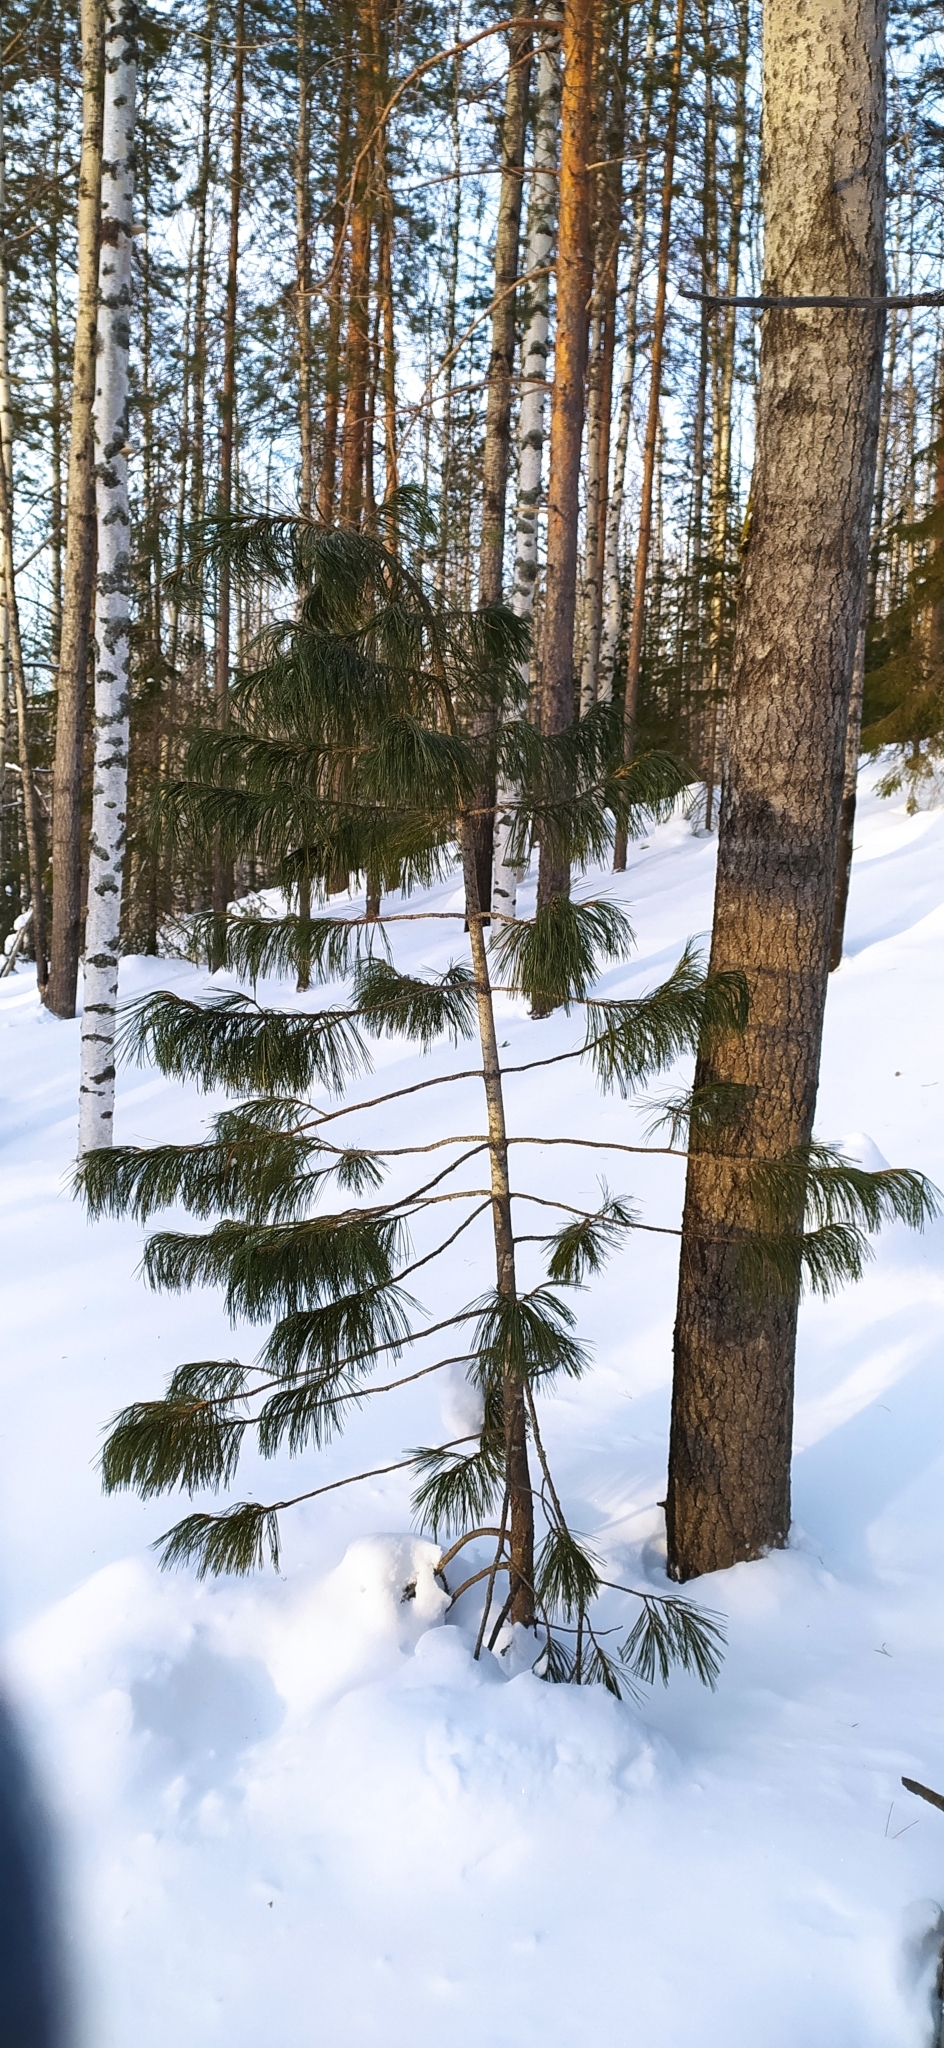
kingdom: Plantae
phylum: Tracheophyta
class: Pinopsida
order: Pinales
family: Pinaceae
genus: Pinus
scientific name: Pinus sibirica
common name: Siberian pine
